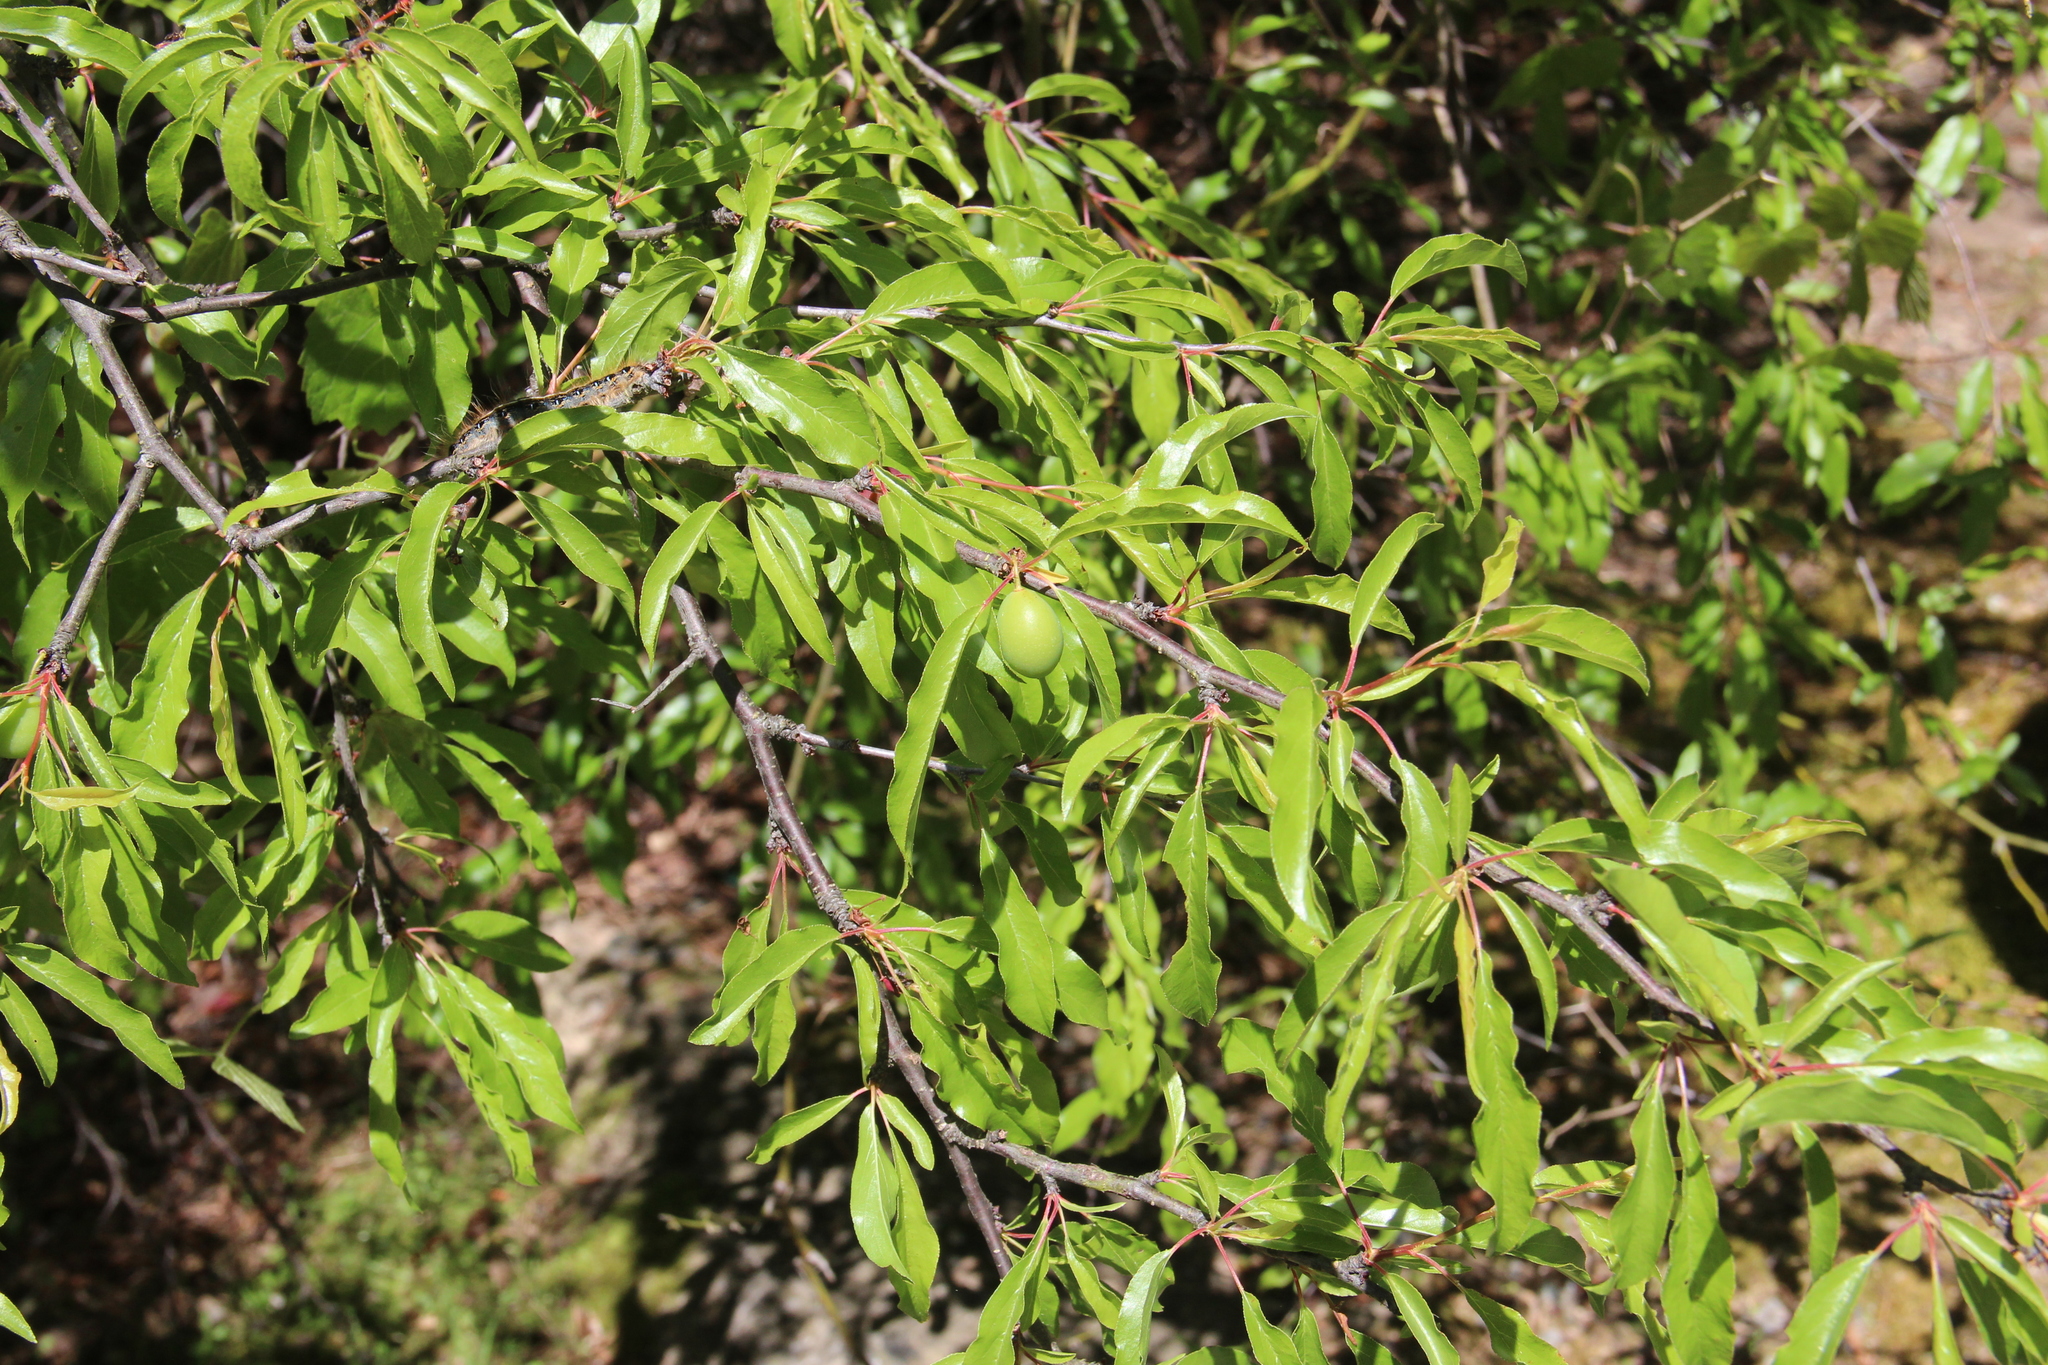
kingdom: Plantae
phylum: Tracheophyta
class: Magnoliopsida
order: Rosales
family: Rosaceae
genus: Prunus
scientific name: Prunus angustifolia
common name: Cherokee plum
